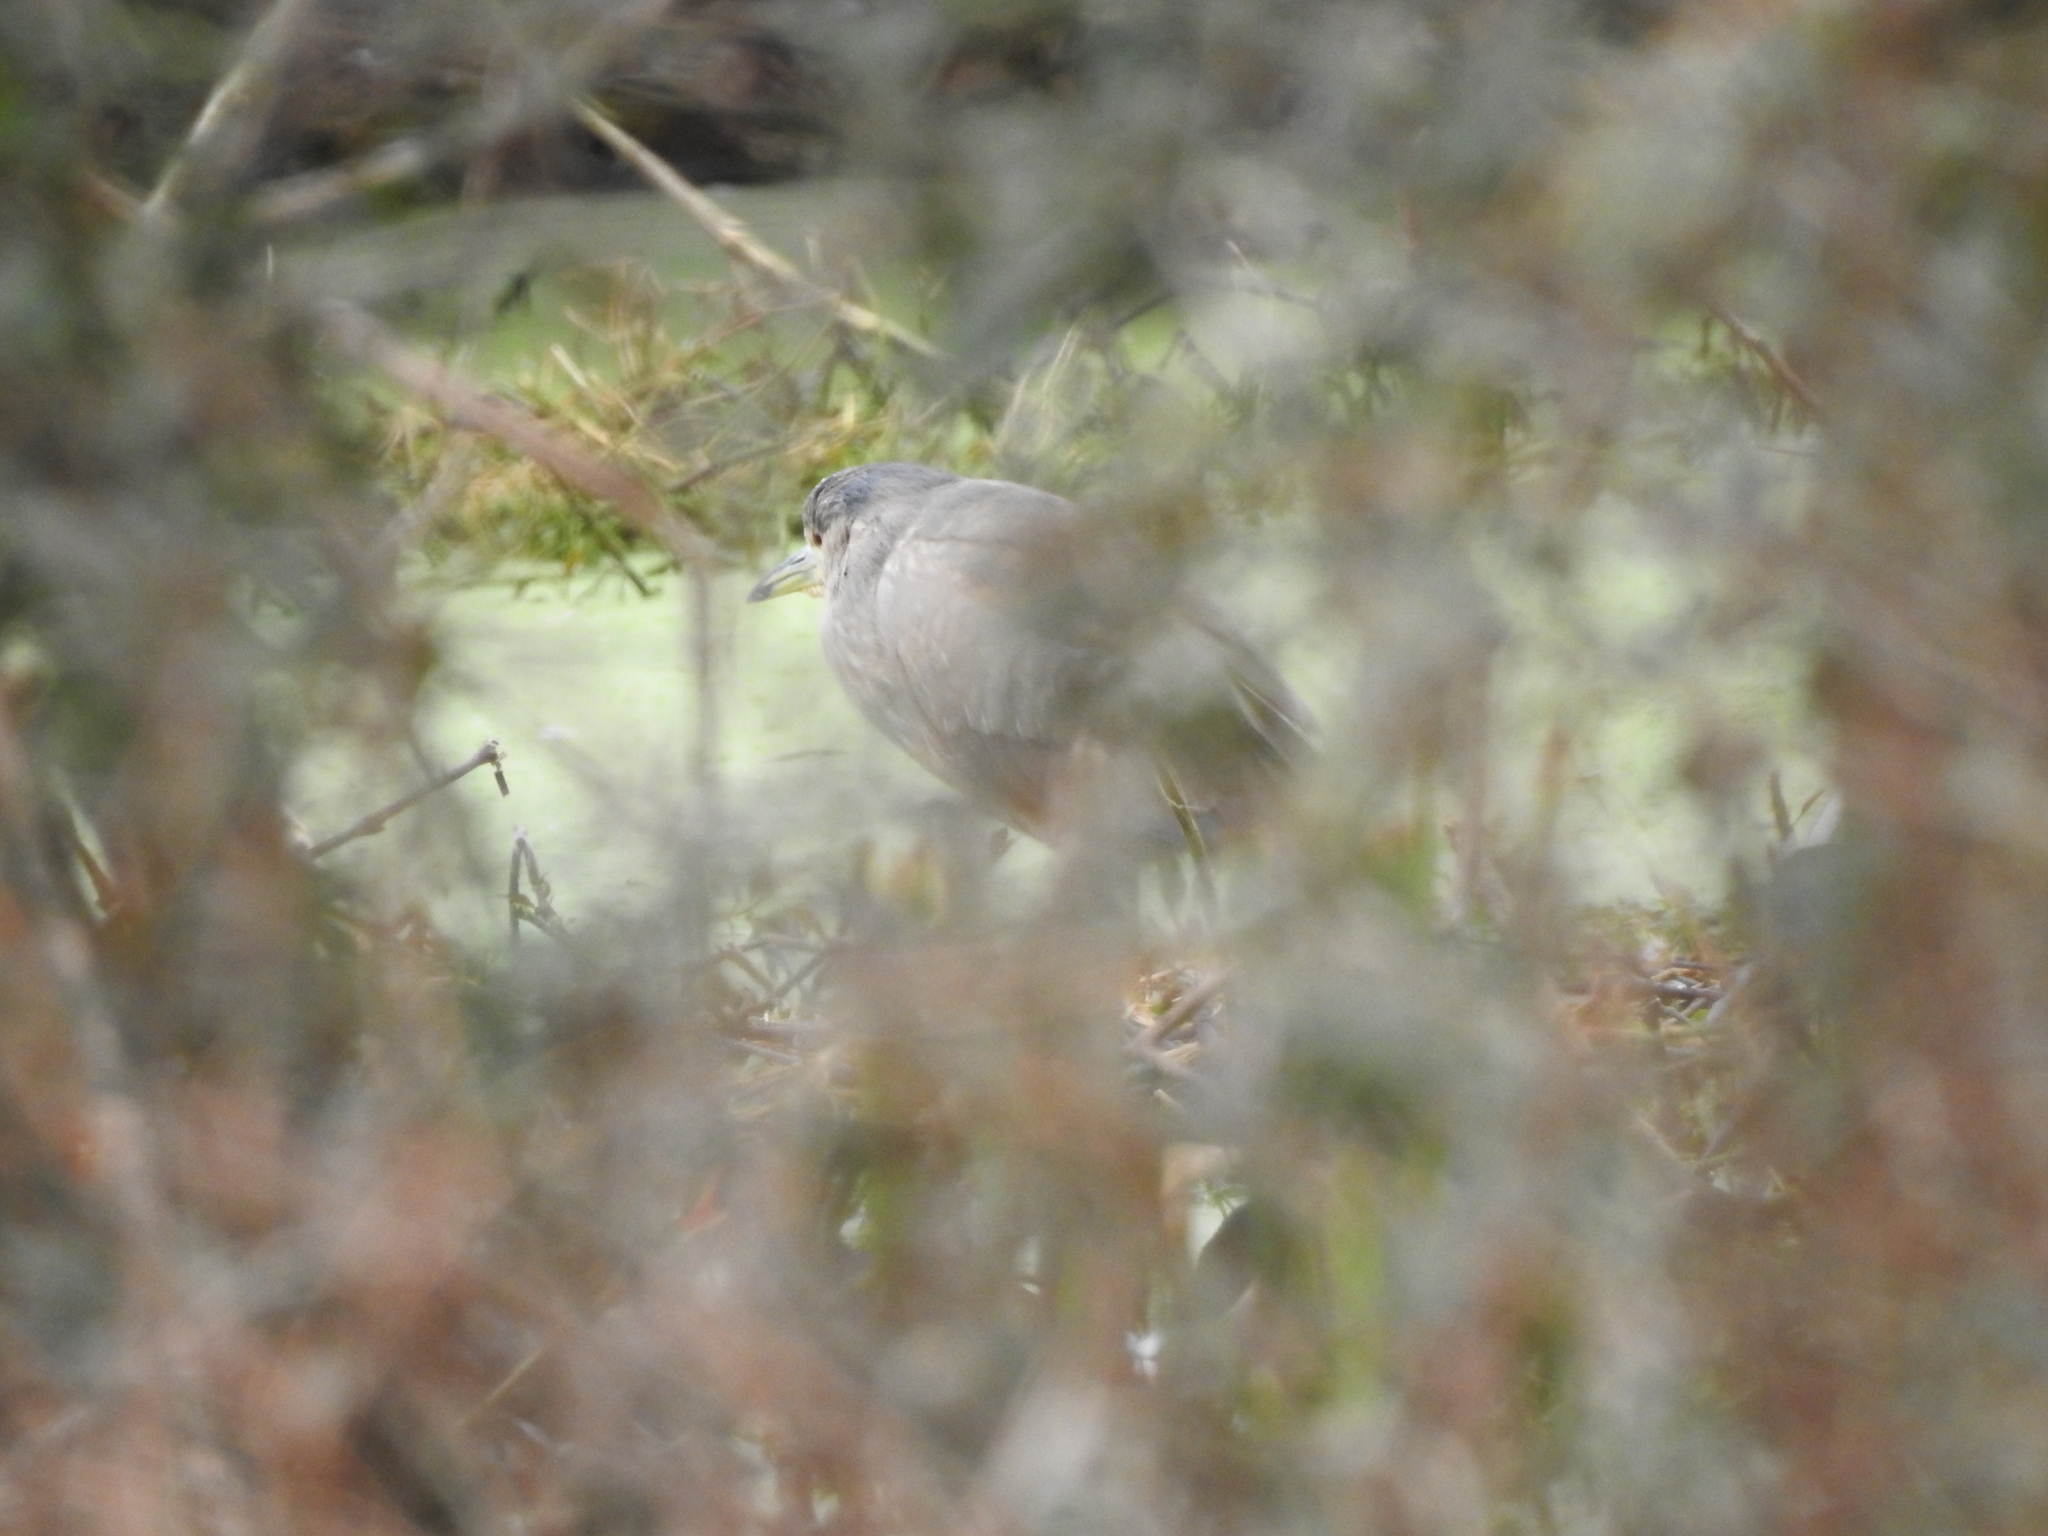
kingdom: Animalia
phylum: Chordata
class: Aves
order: Pelecaniformes
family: Ardeidae
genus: Nycticorax
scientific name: Nycticorax nycticorax
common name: Black-crowned night heron
